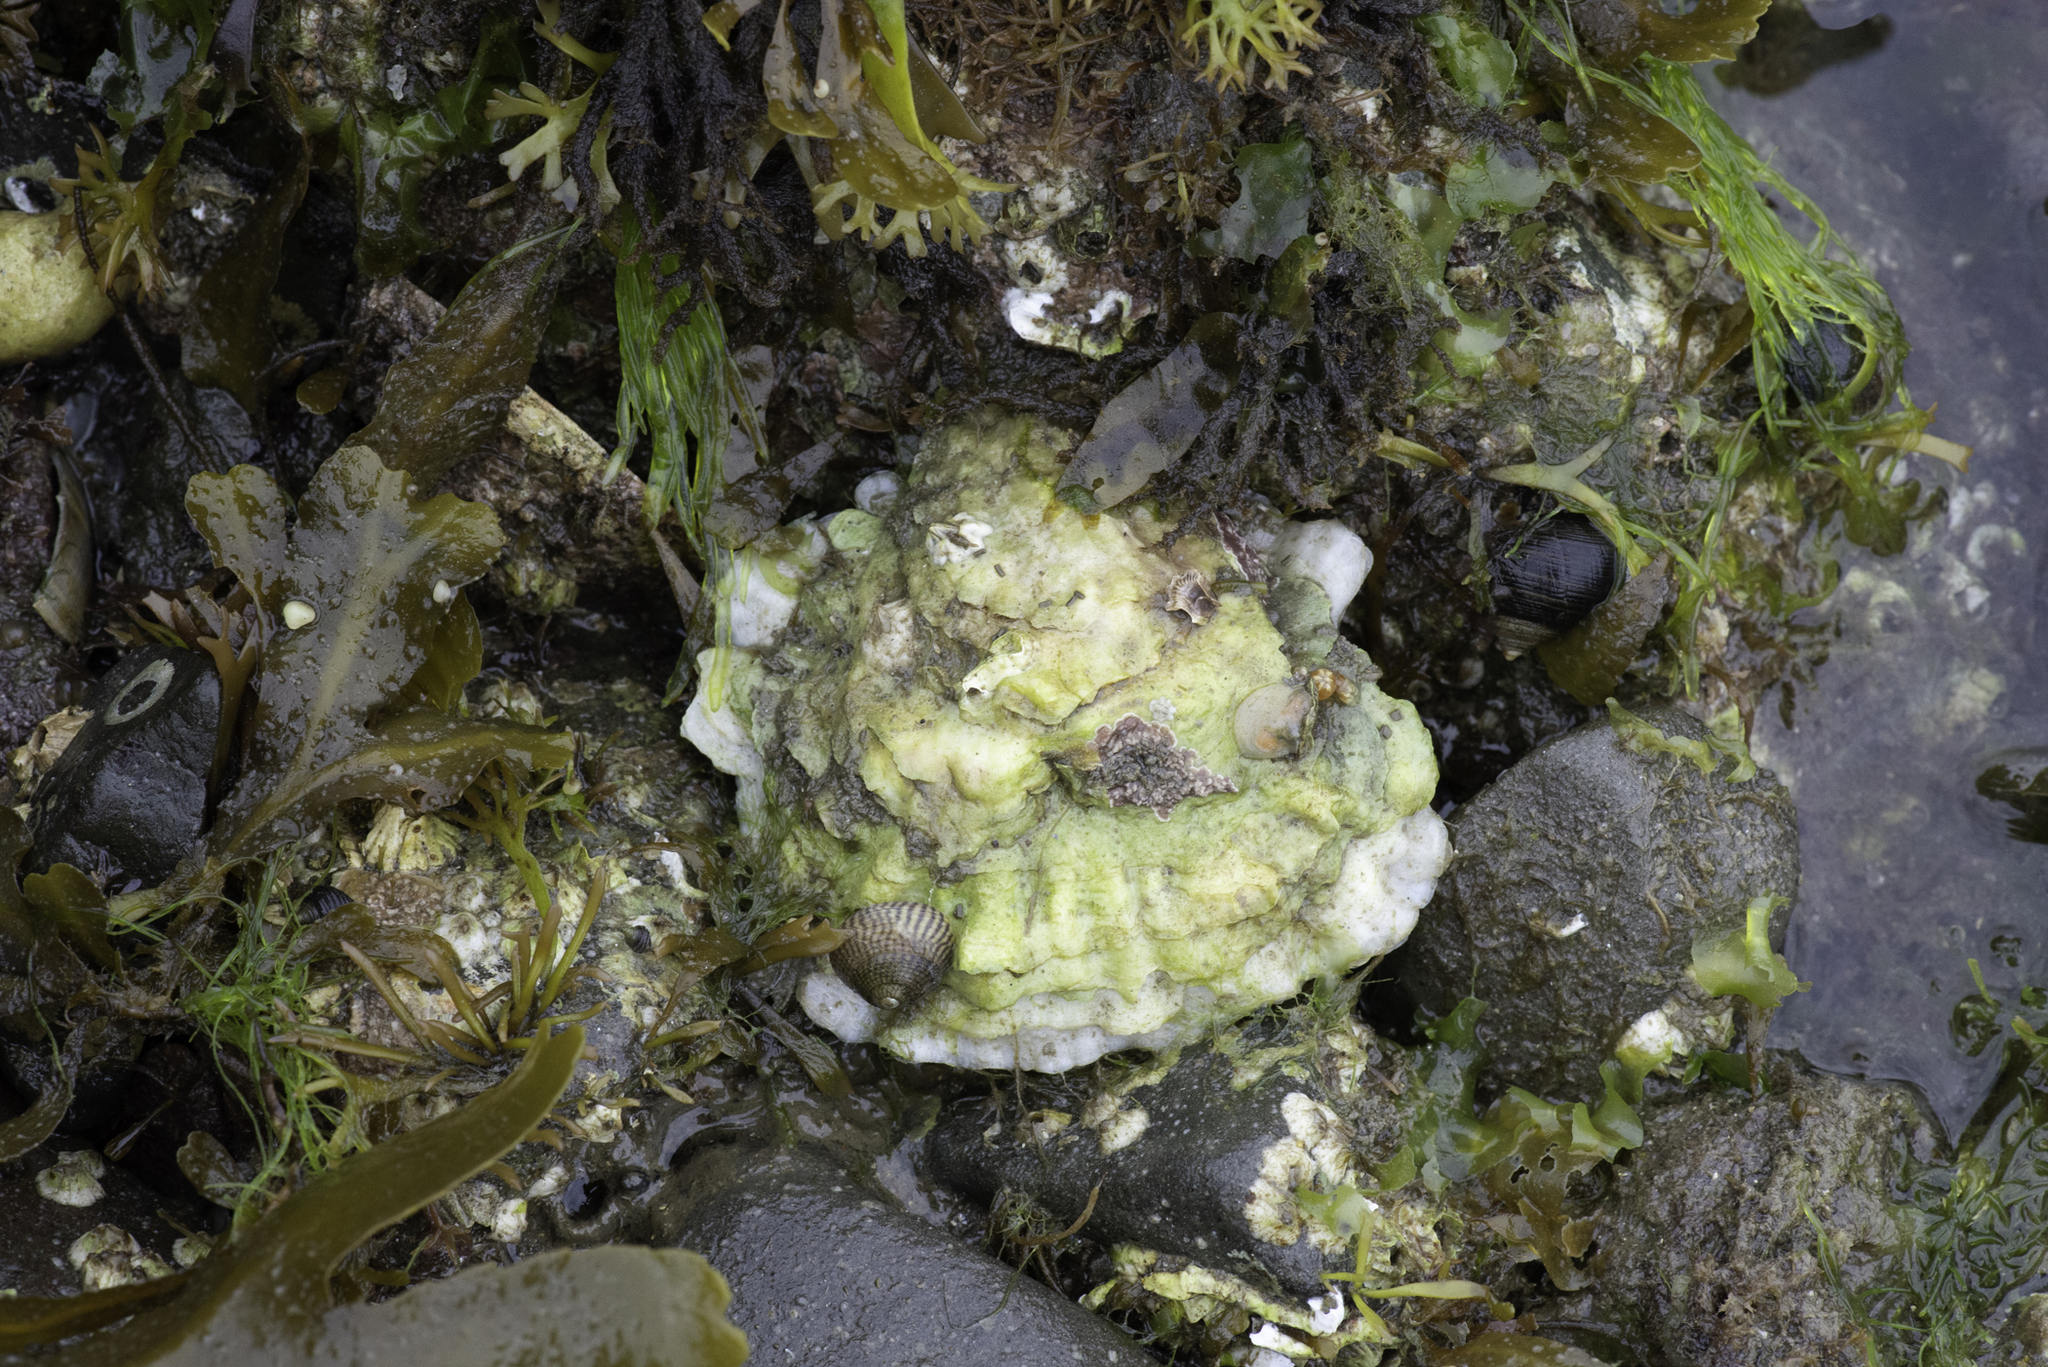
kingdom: Animalia
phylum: Mollusca
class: Bivalvia
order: Ostreida
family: Ostreidae
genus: Ostrea
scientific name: Ostrea edulis
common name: Flat oyster
